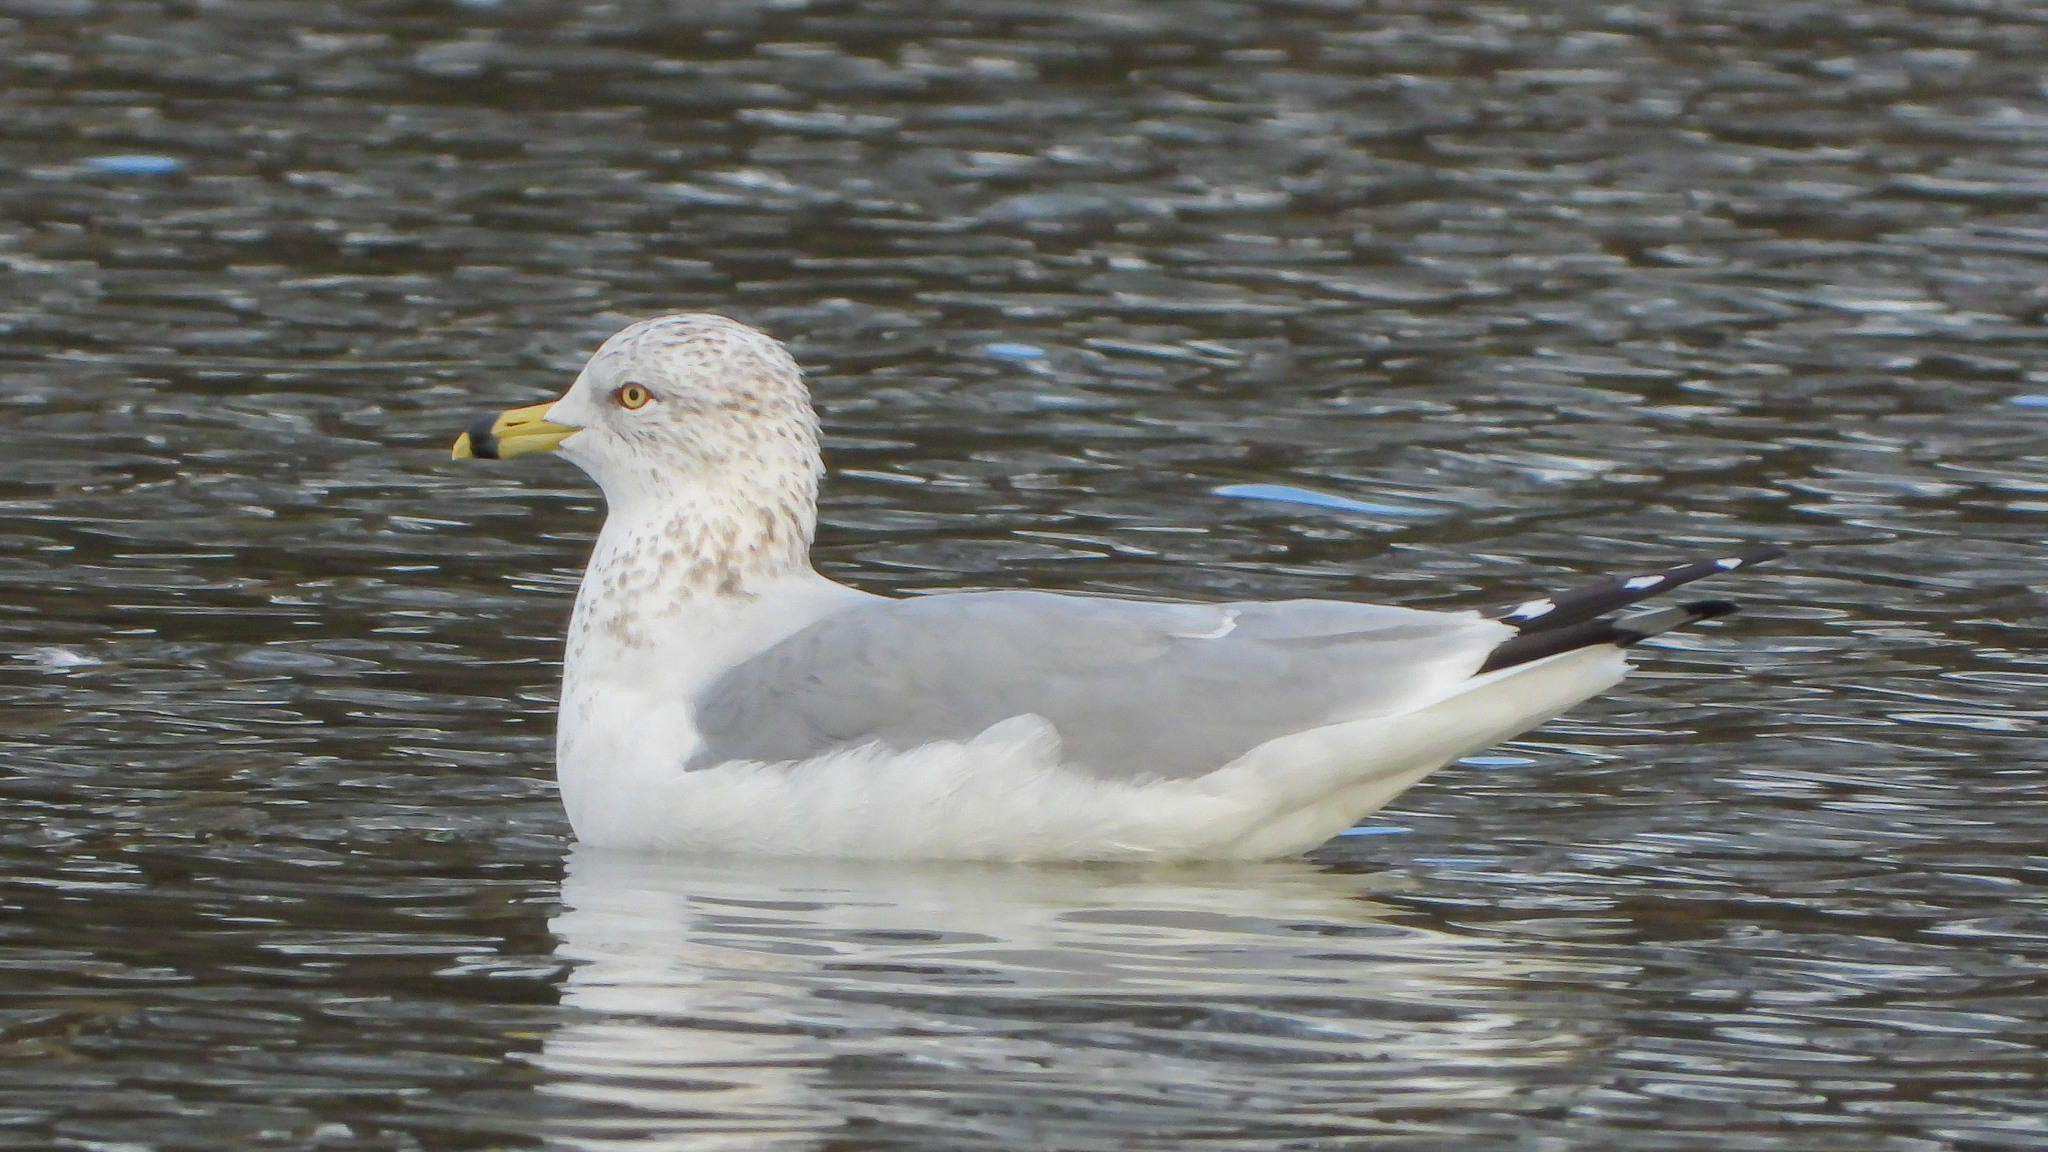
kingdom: Animalia
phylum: Chordata
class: Aves
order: Charadriiformes
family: Laridae
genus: Larus
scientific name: Larus delawarensis
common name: Ring-billed gull
